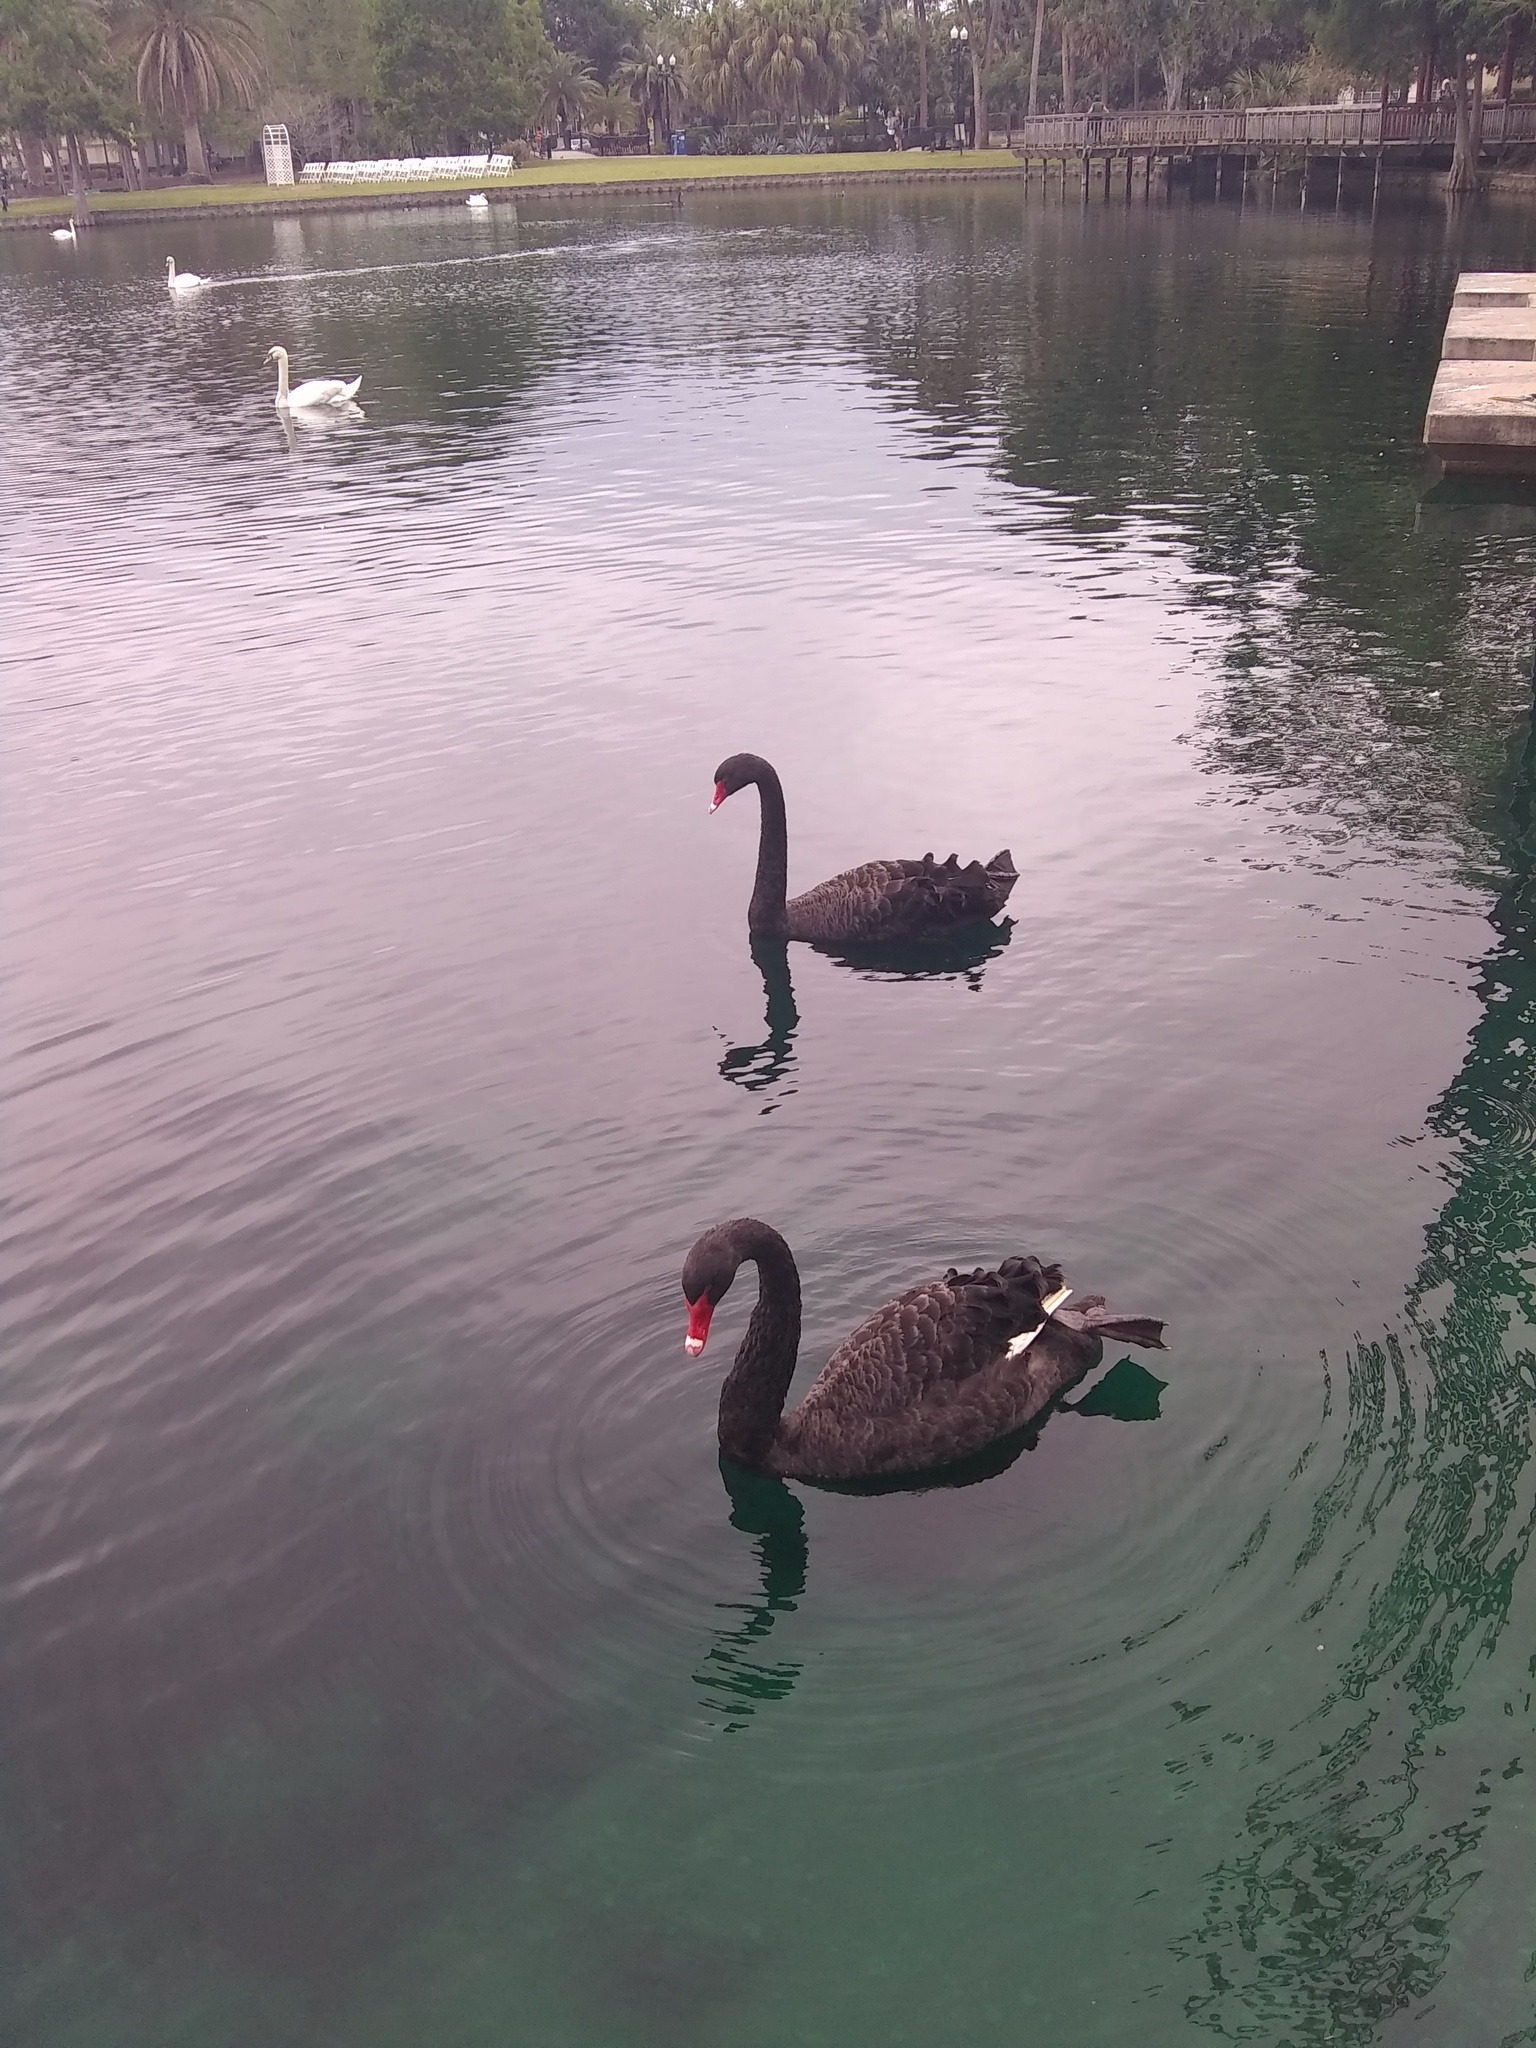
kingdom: Animalia
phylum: Chordata
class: Aves
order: Anseriformes
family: Anatidae
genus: Cygnus
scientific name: Cygnus atratus
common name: Black swan
